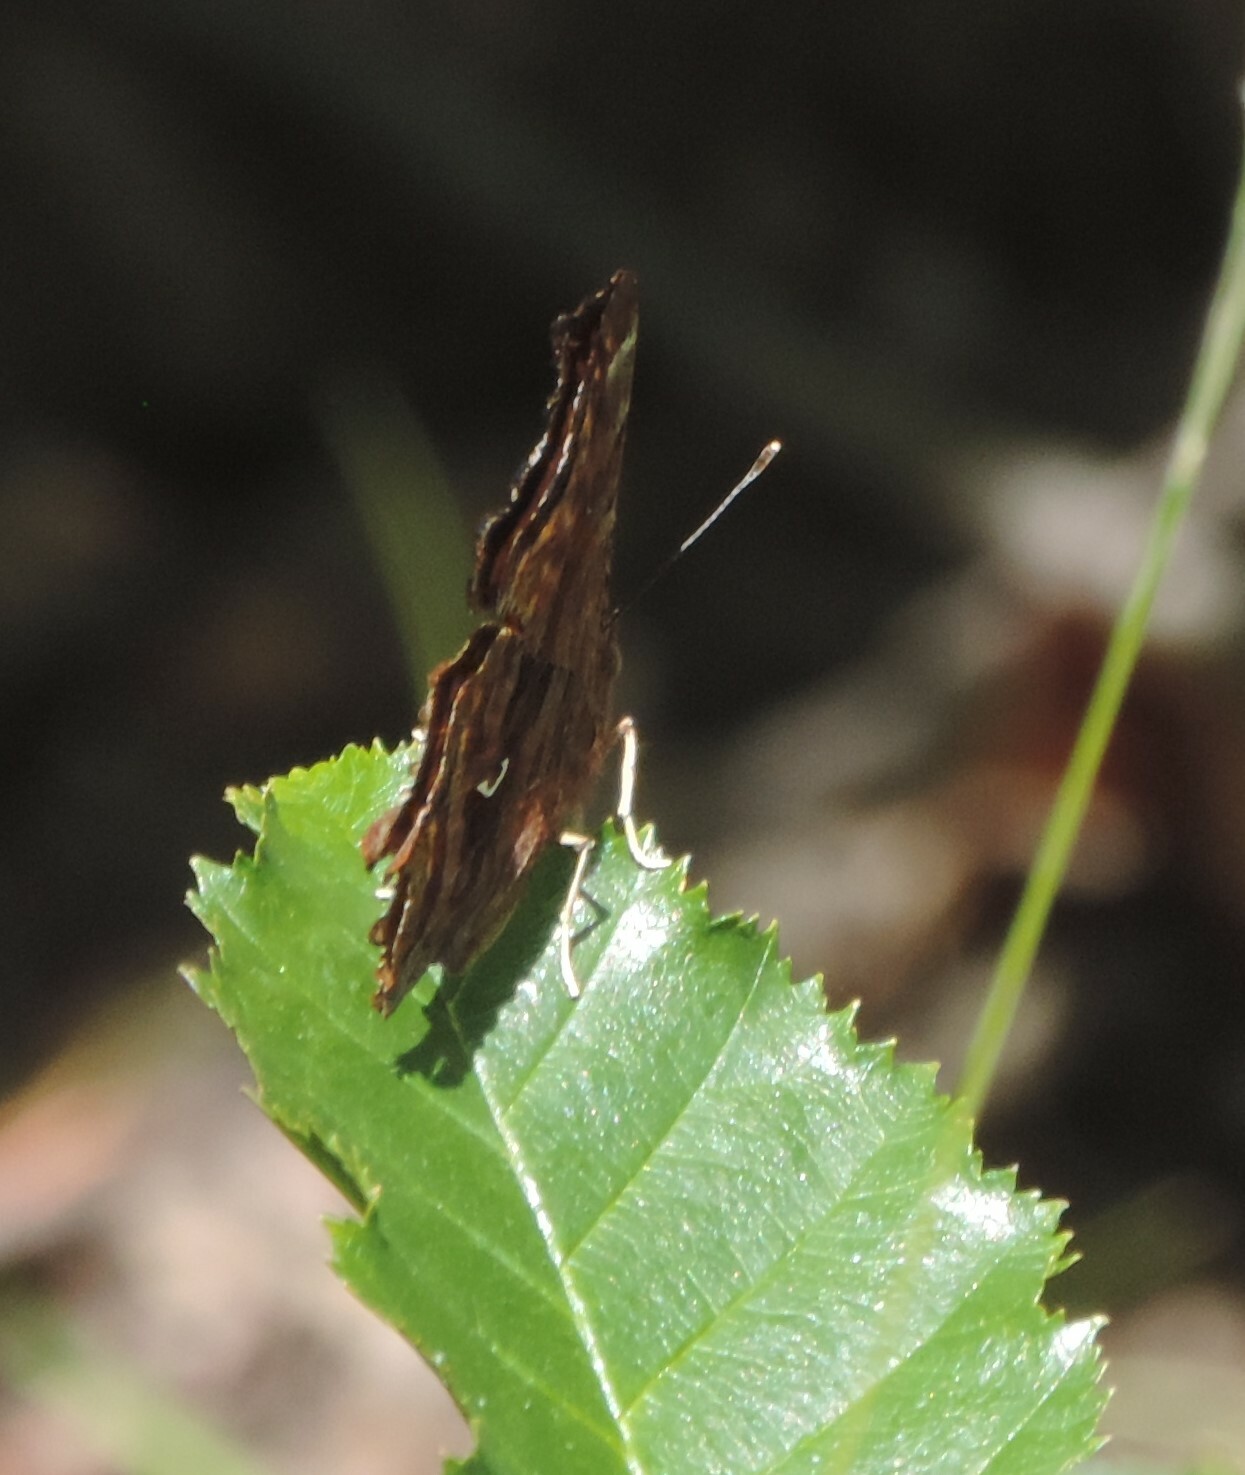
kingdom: Animalia
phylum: Arthropoda
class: Insecta
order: Lepidoptera
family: Nymphalidae
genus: Polygonia
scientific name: Polygonia satyrus
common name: Satyr angle wing
